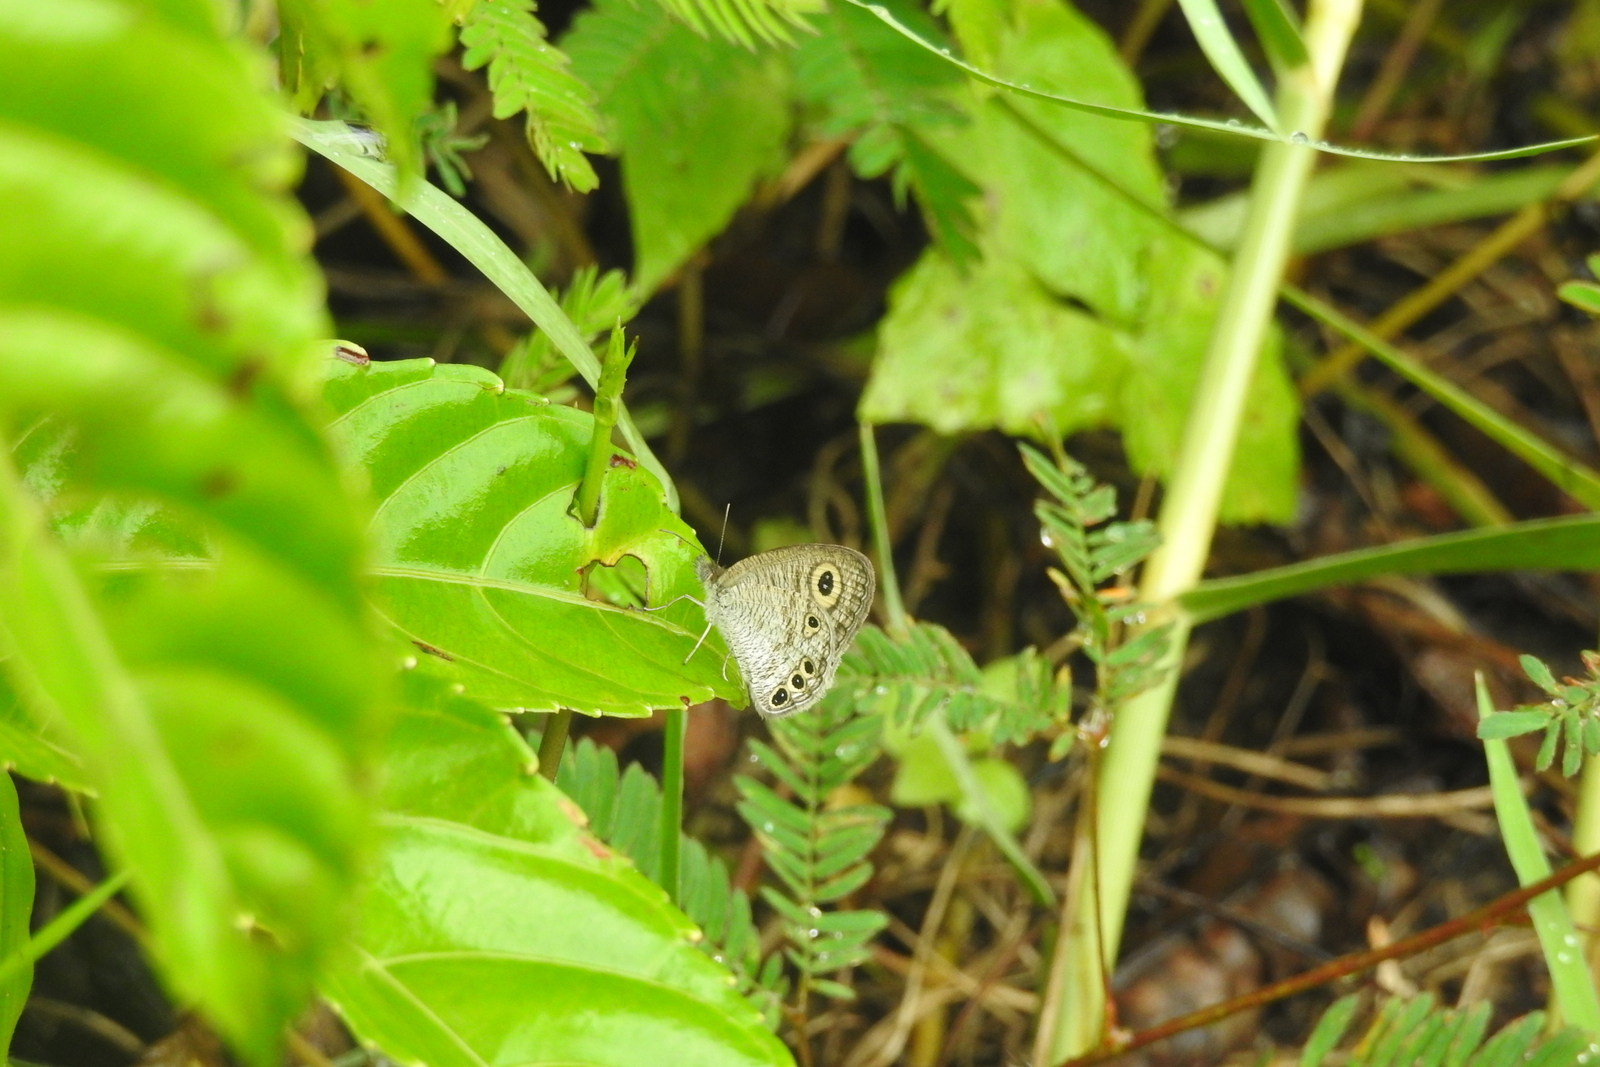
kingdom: Animalia
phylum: Arthropoda
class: Insecta
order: Lepidoptera
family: Nymphalidae
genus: Ypthima
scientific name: Ypthima huebneri
